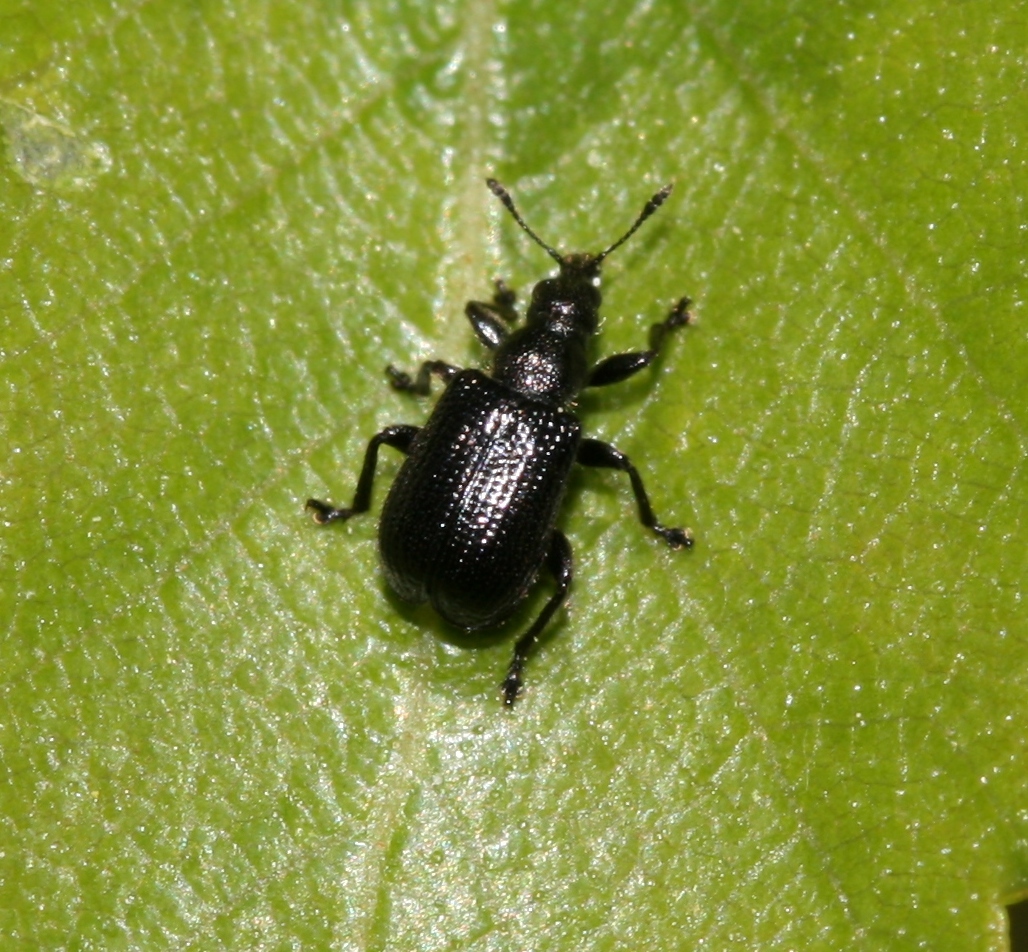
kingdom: Animalia
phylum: Arthropoda
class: Insecta
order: Coleoptera
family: Attelabidae
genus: Deporaus
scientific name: Deporaus betulae
